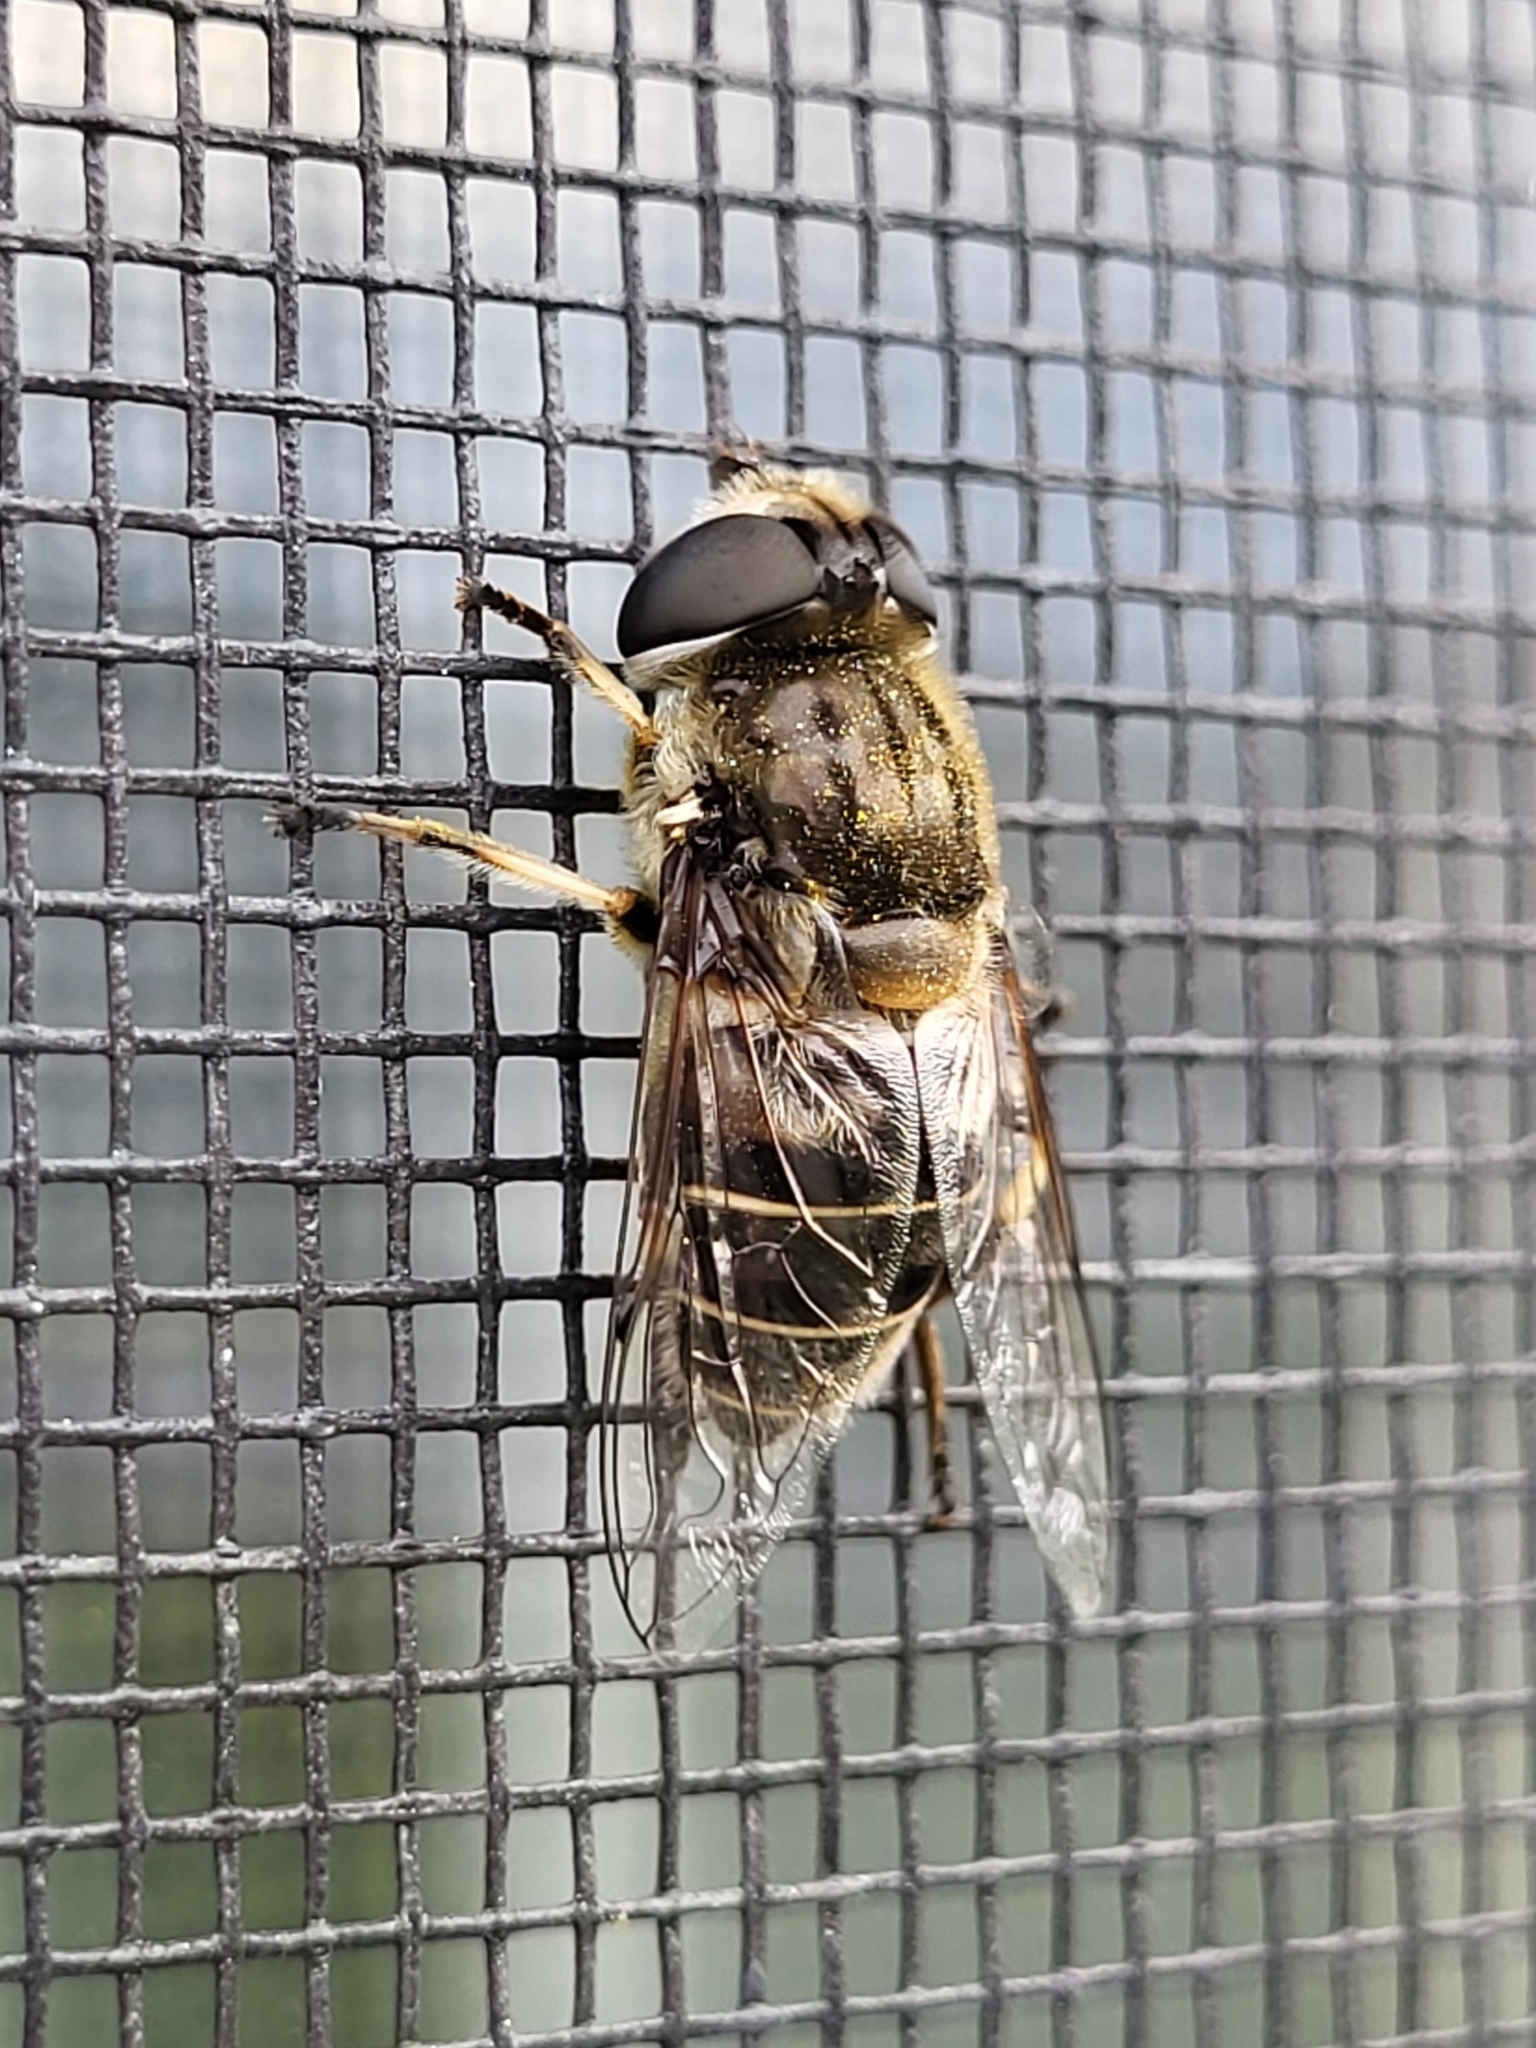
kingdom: Animalia
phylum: Arthropoda
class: Insecta
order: Diptera
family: Syrphidae
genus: Eristalis
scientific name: Eristalis dimidiata
